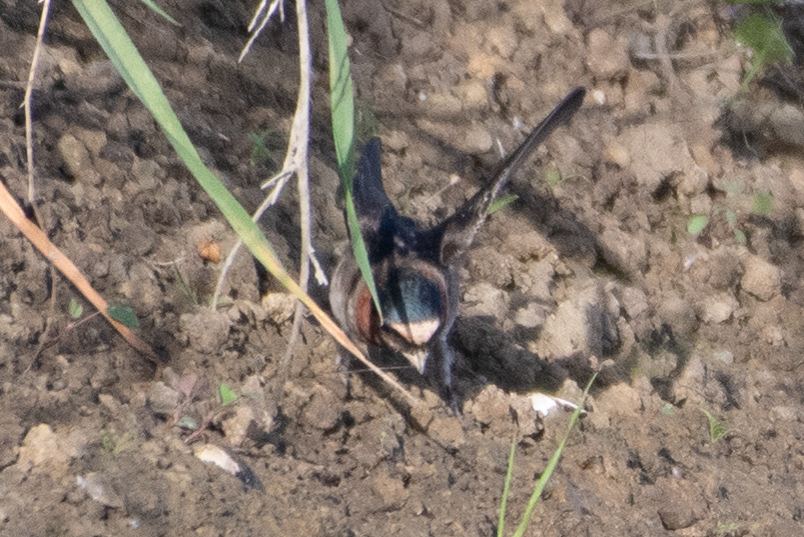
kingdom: Animalia
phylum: Chordata
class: Aves
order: Passeriformes
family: Hirundinidae
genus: Petrochelidon
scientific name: Petrochelidon pyrrhonota
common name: American cliff swallow
